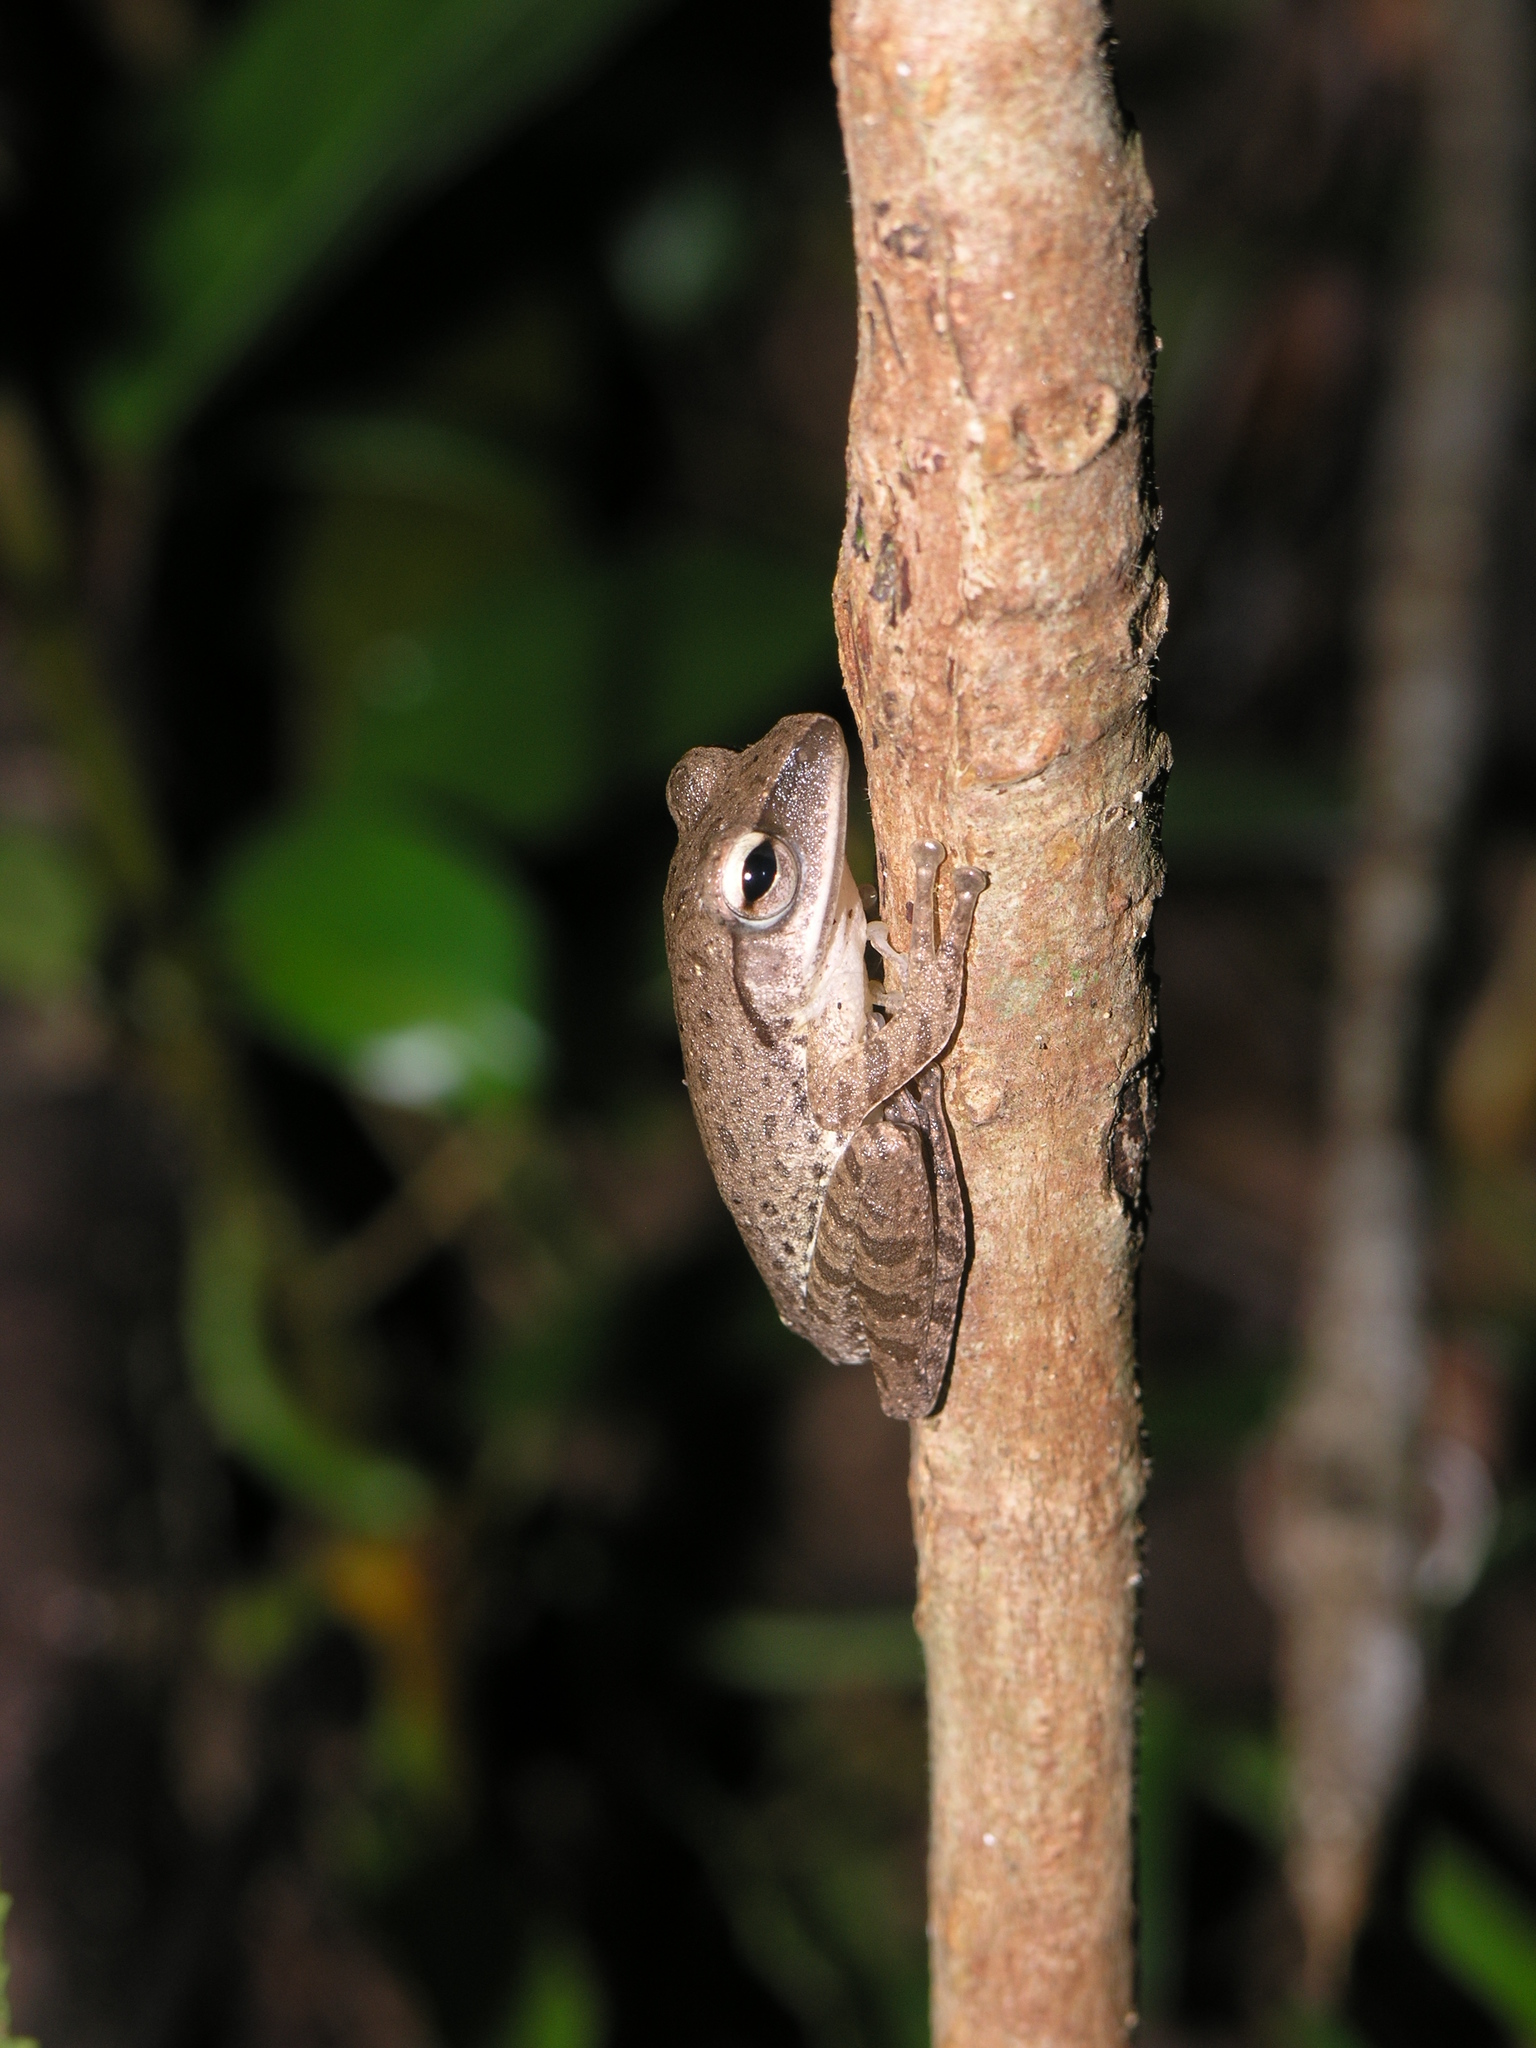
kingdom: Animalia
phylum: Chordata
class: Amphibia
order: Anura
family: Rhacophoridae
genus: Polypedates
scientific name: Polypedates megacephalus
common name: Hong kong whipping frog
